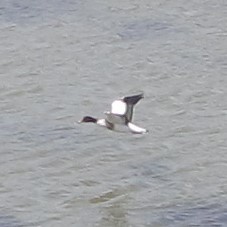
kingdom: Animalia
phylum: Chordata
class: Aves
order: Anseriformes
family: Anatidae
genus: Tadorna
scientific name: Tadorna tadorna
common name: Common shelduck
